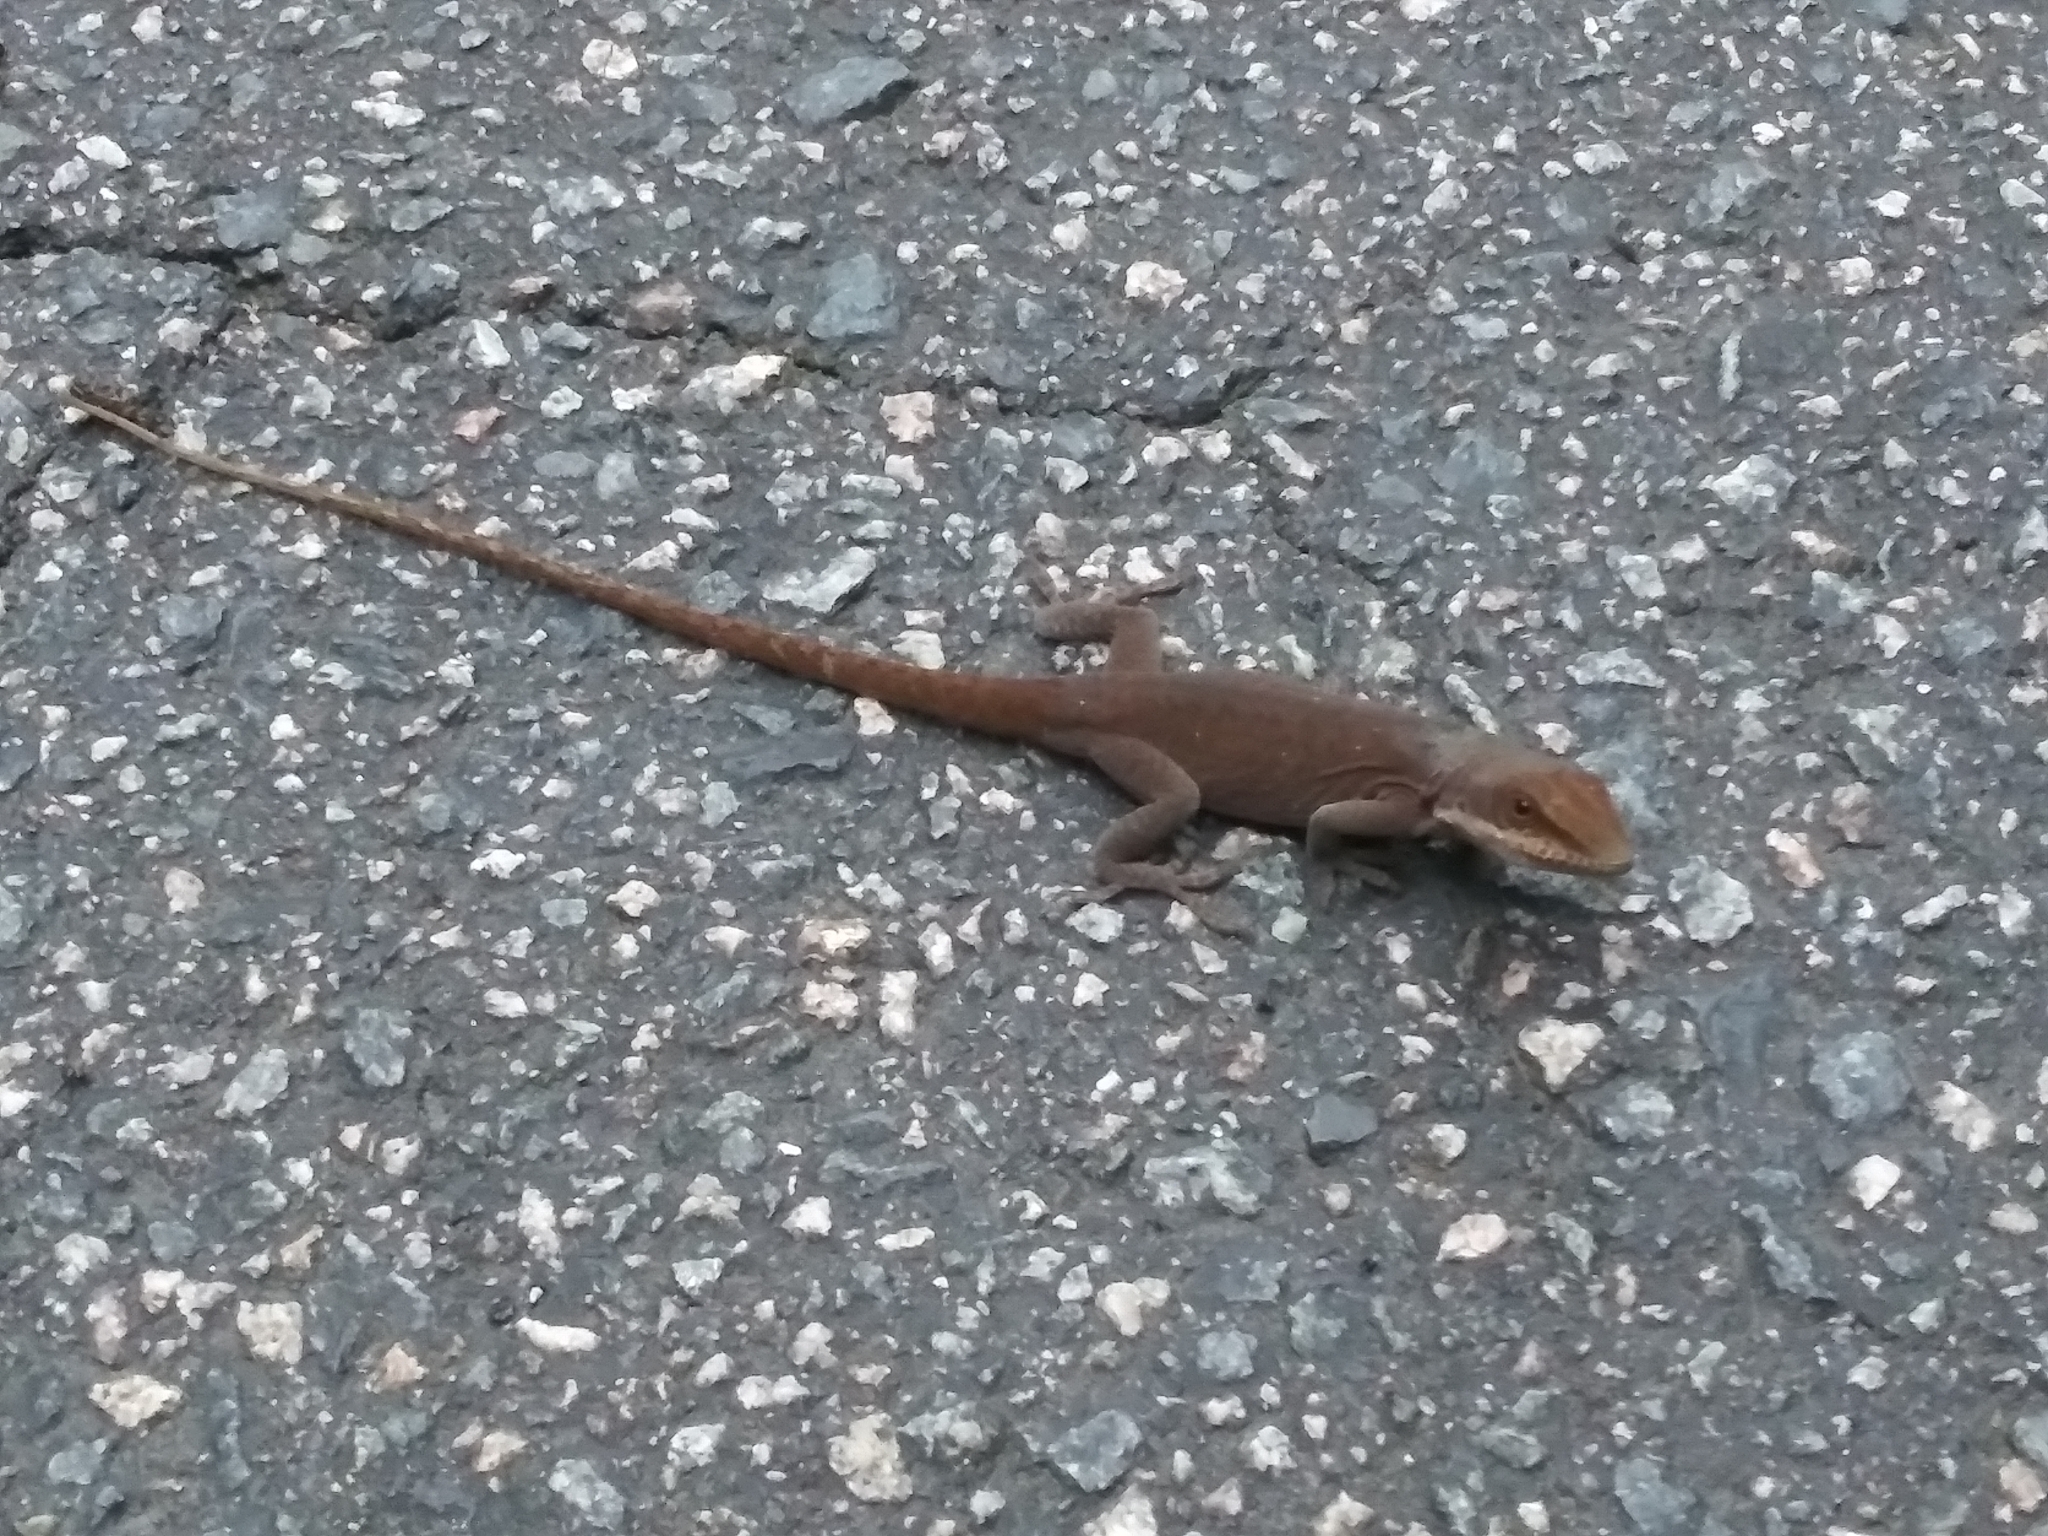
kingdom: Animalia
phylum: Chordata
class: Squamata
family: Dactyloidae
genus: Anolis
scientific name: Anolis carolinensis
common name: Green anole
